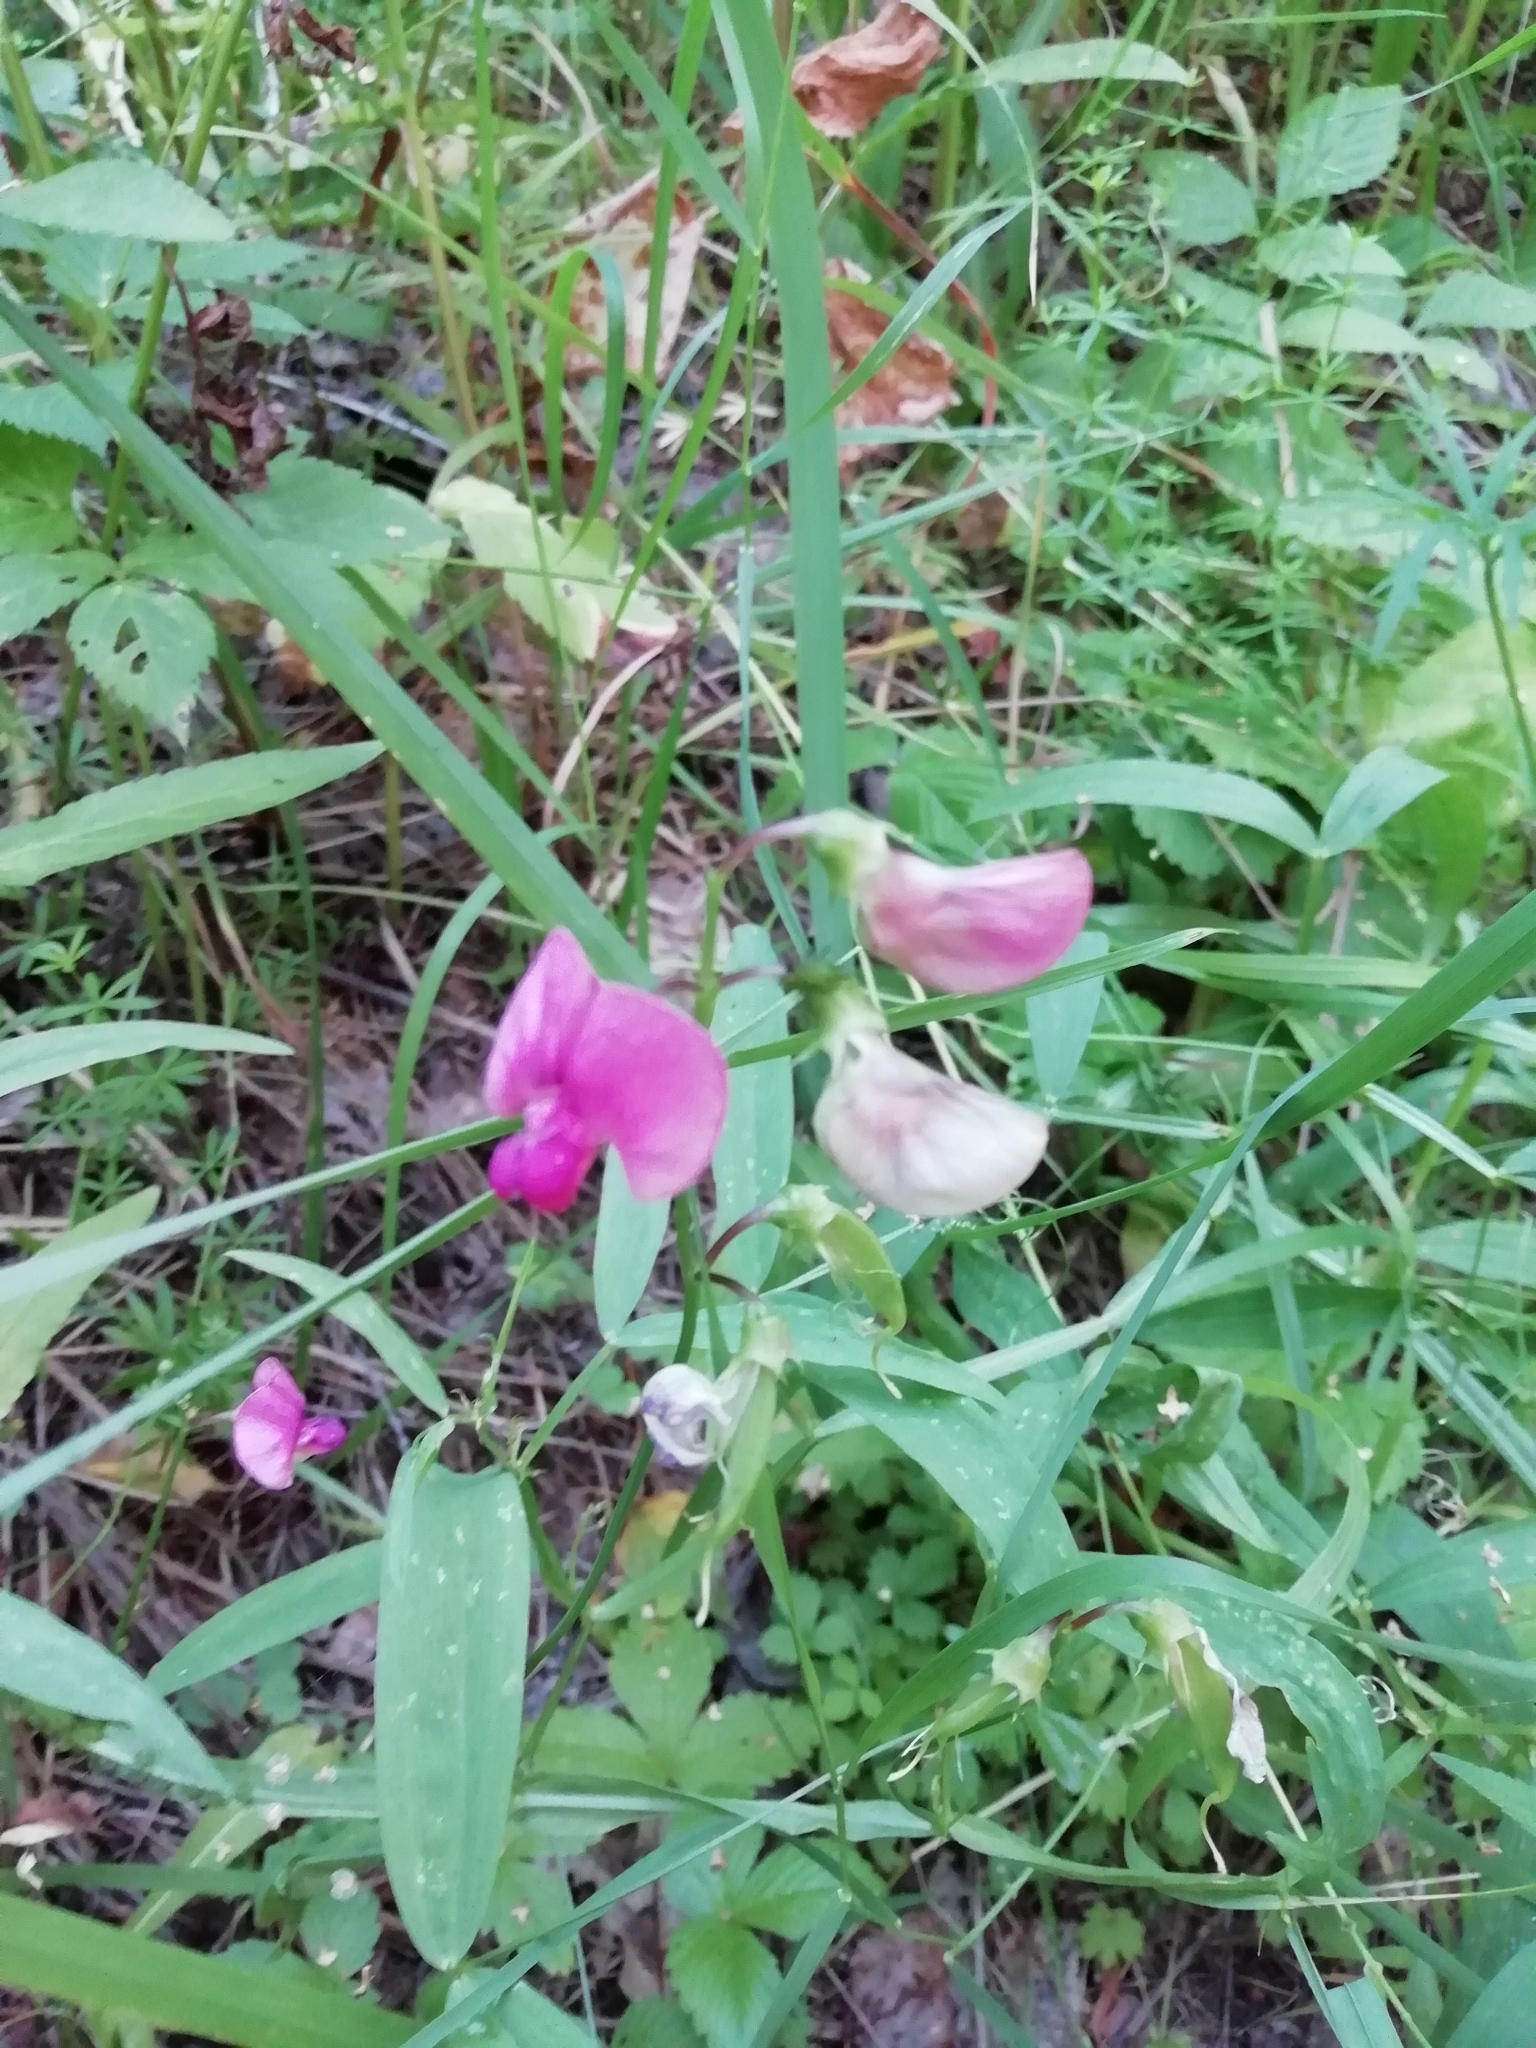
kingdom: Plantae
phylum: Tracheophyta
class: Magnoliopsida
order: Fabales
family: Fabaceae
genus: Lathyrus
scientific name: Lathyrus sylvestris
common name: Flat pea
